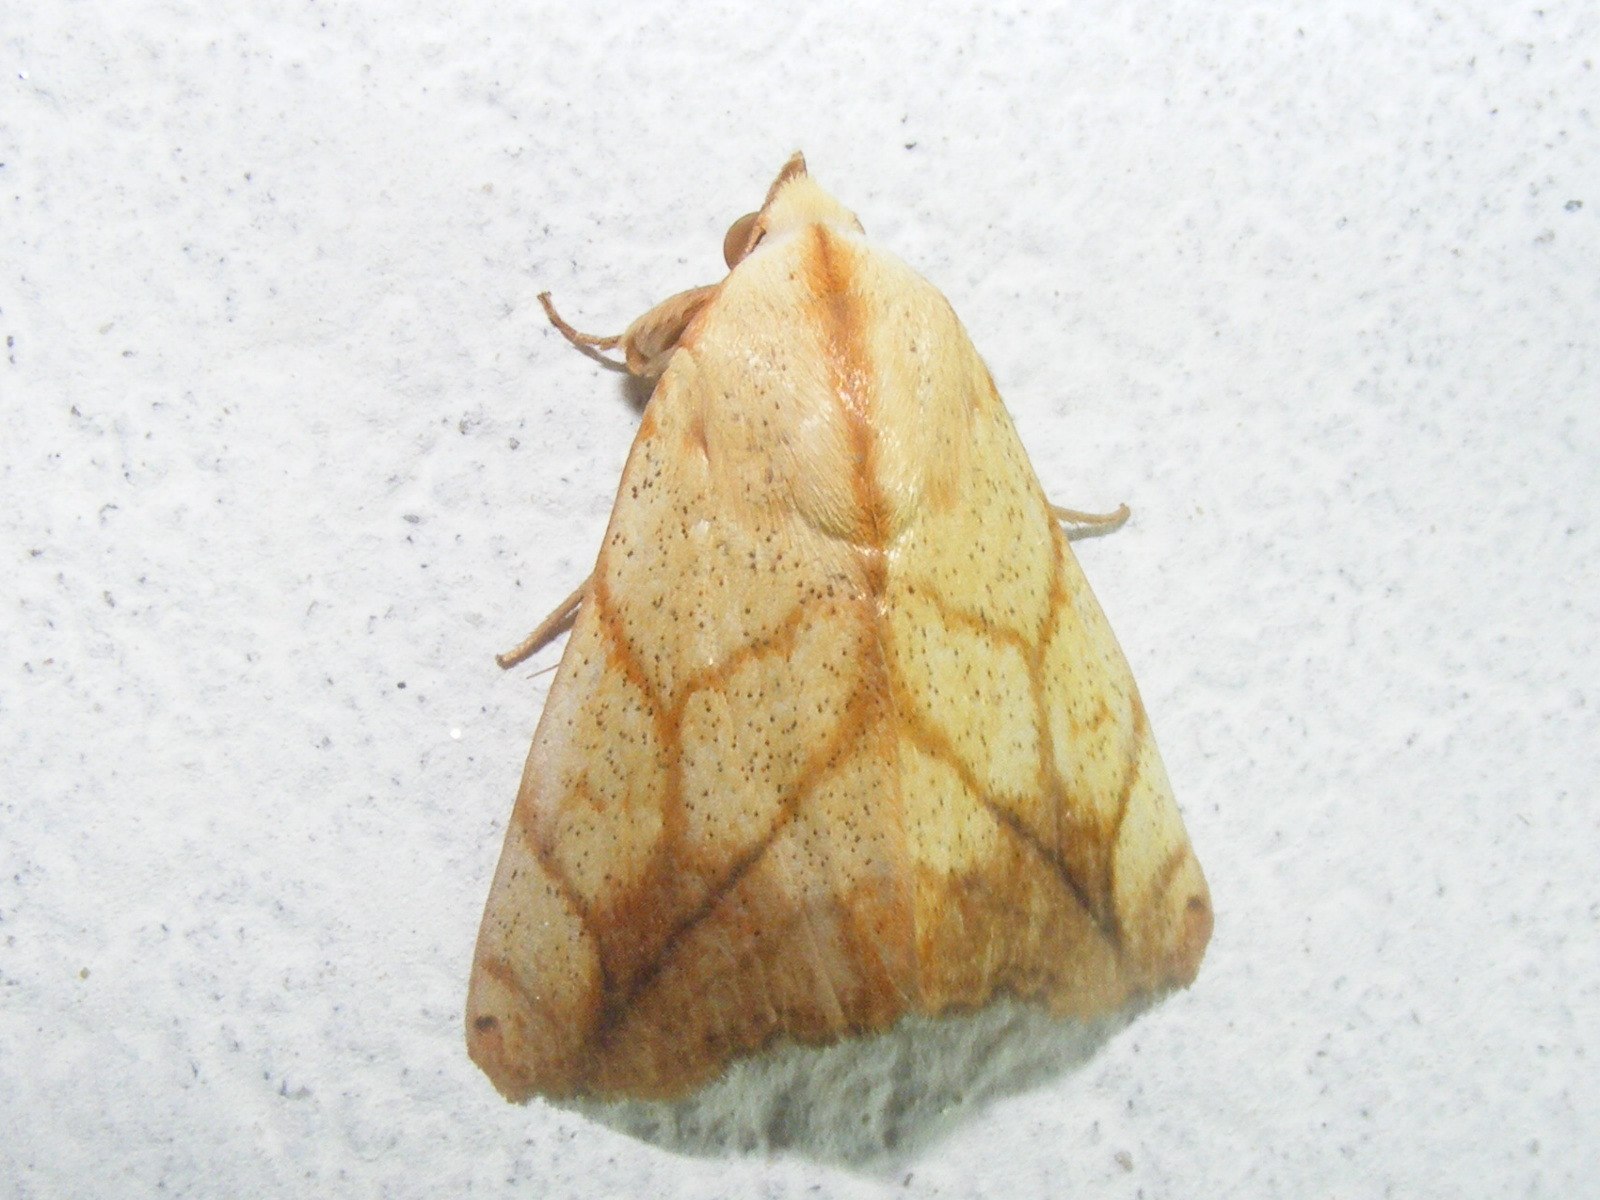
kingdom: Animalia
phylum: Arthropoda
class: Insecta
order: Lepidoptera
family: Nolidae
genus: Xanthodes
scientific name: Xanthodes transversa
